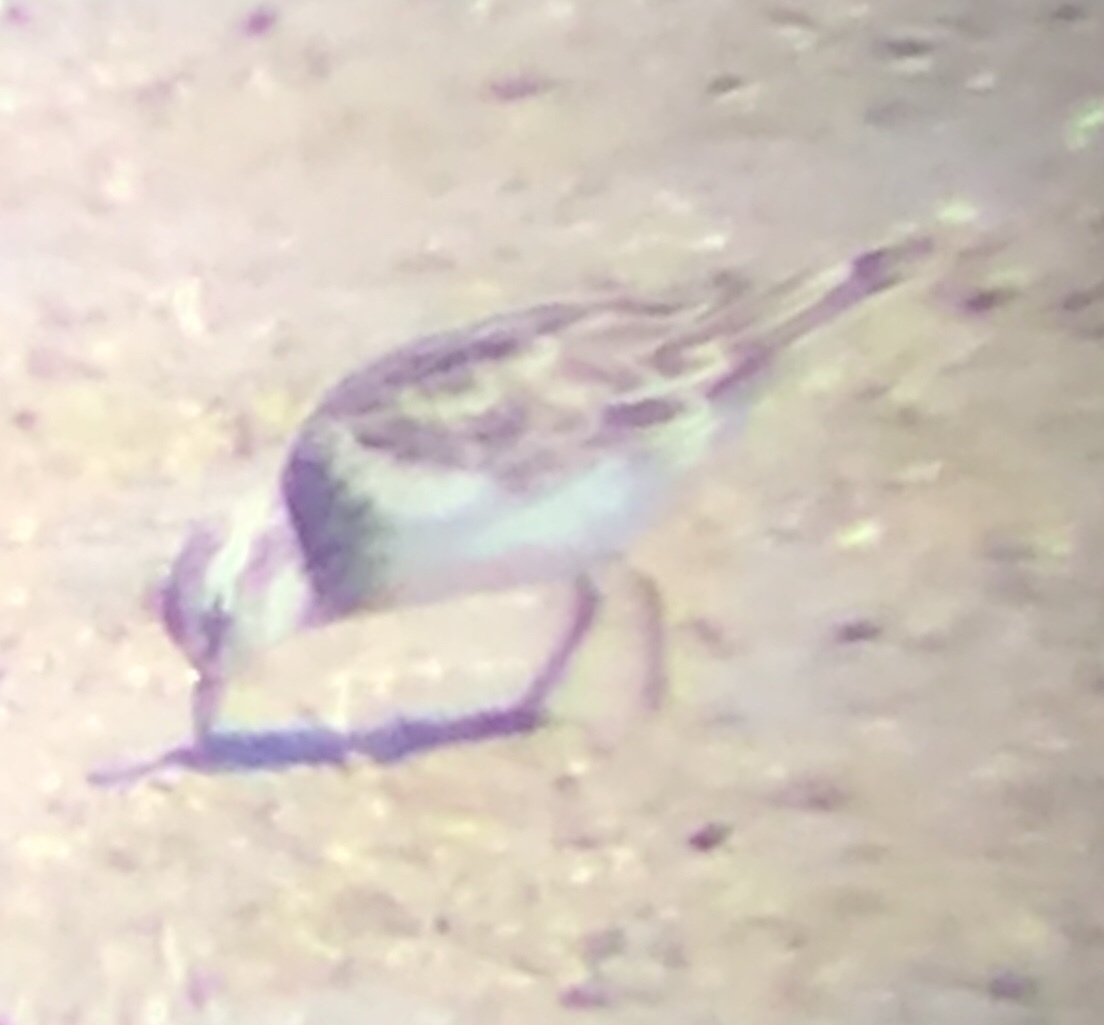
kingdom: Animalia
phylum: Chordata
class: Aves
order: Charadriiformes
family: Scolopacidae
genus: Calidris
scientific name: Calidris minutilla
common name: Least sandpiper
